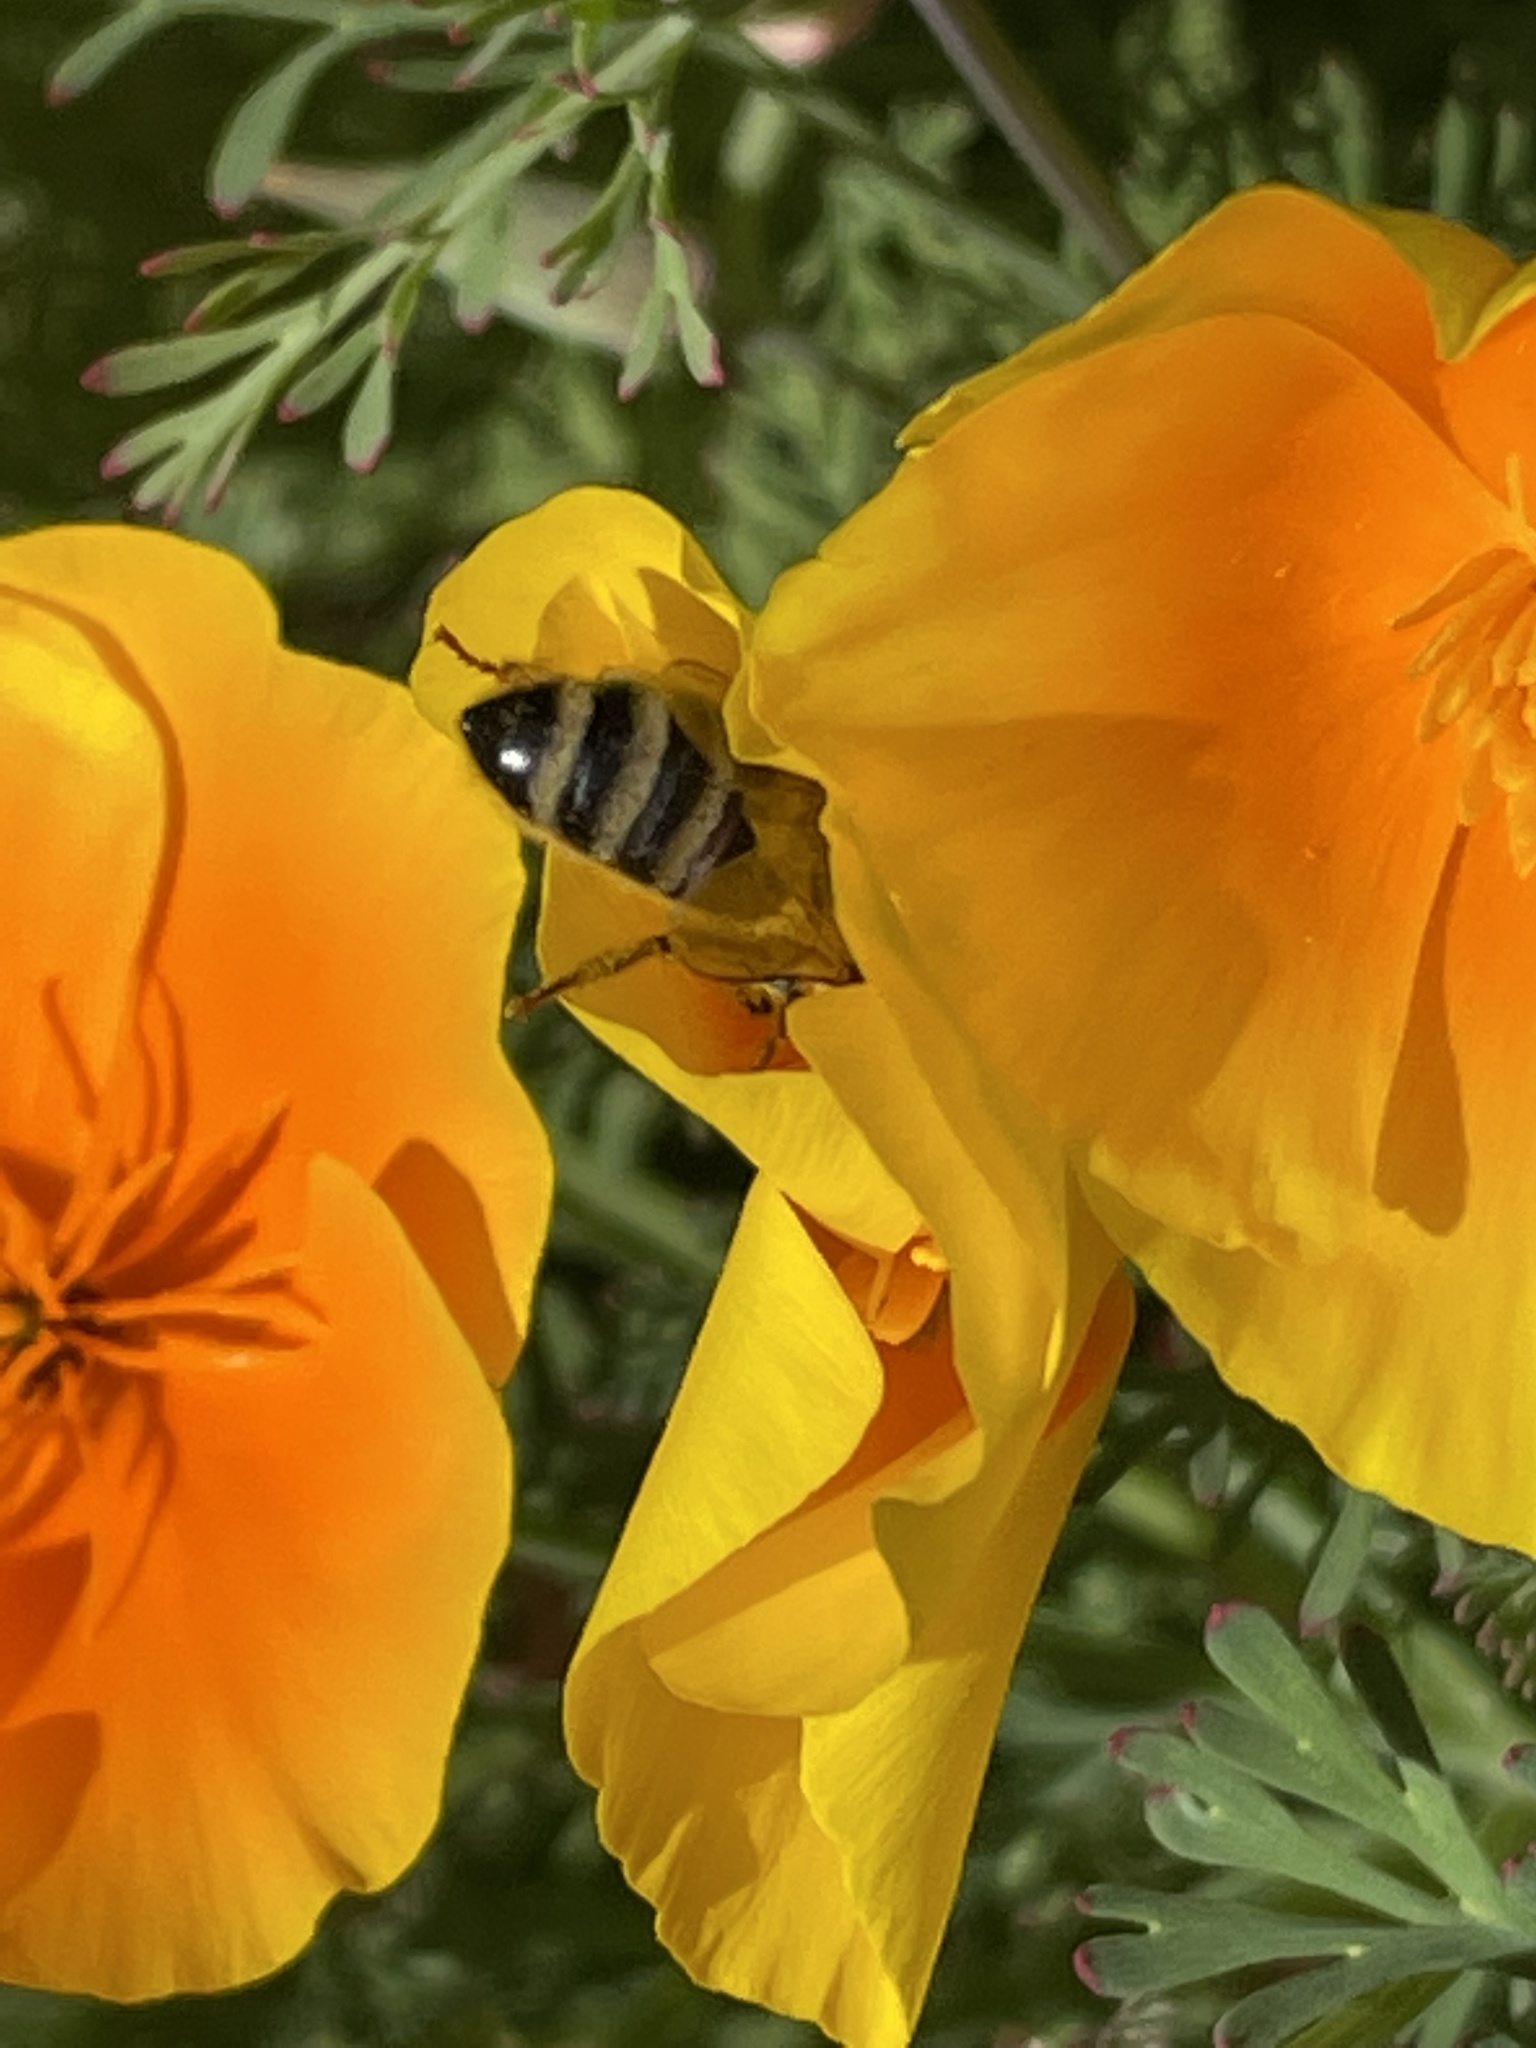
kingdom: Plantae
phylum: Tracheophyta
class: Magnoliopsida
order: Ranunculales
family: Papaveraceae
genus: Eschscholzia
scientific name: Eschscholzia californica
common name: California poppy
